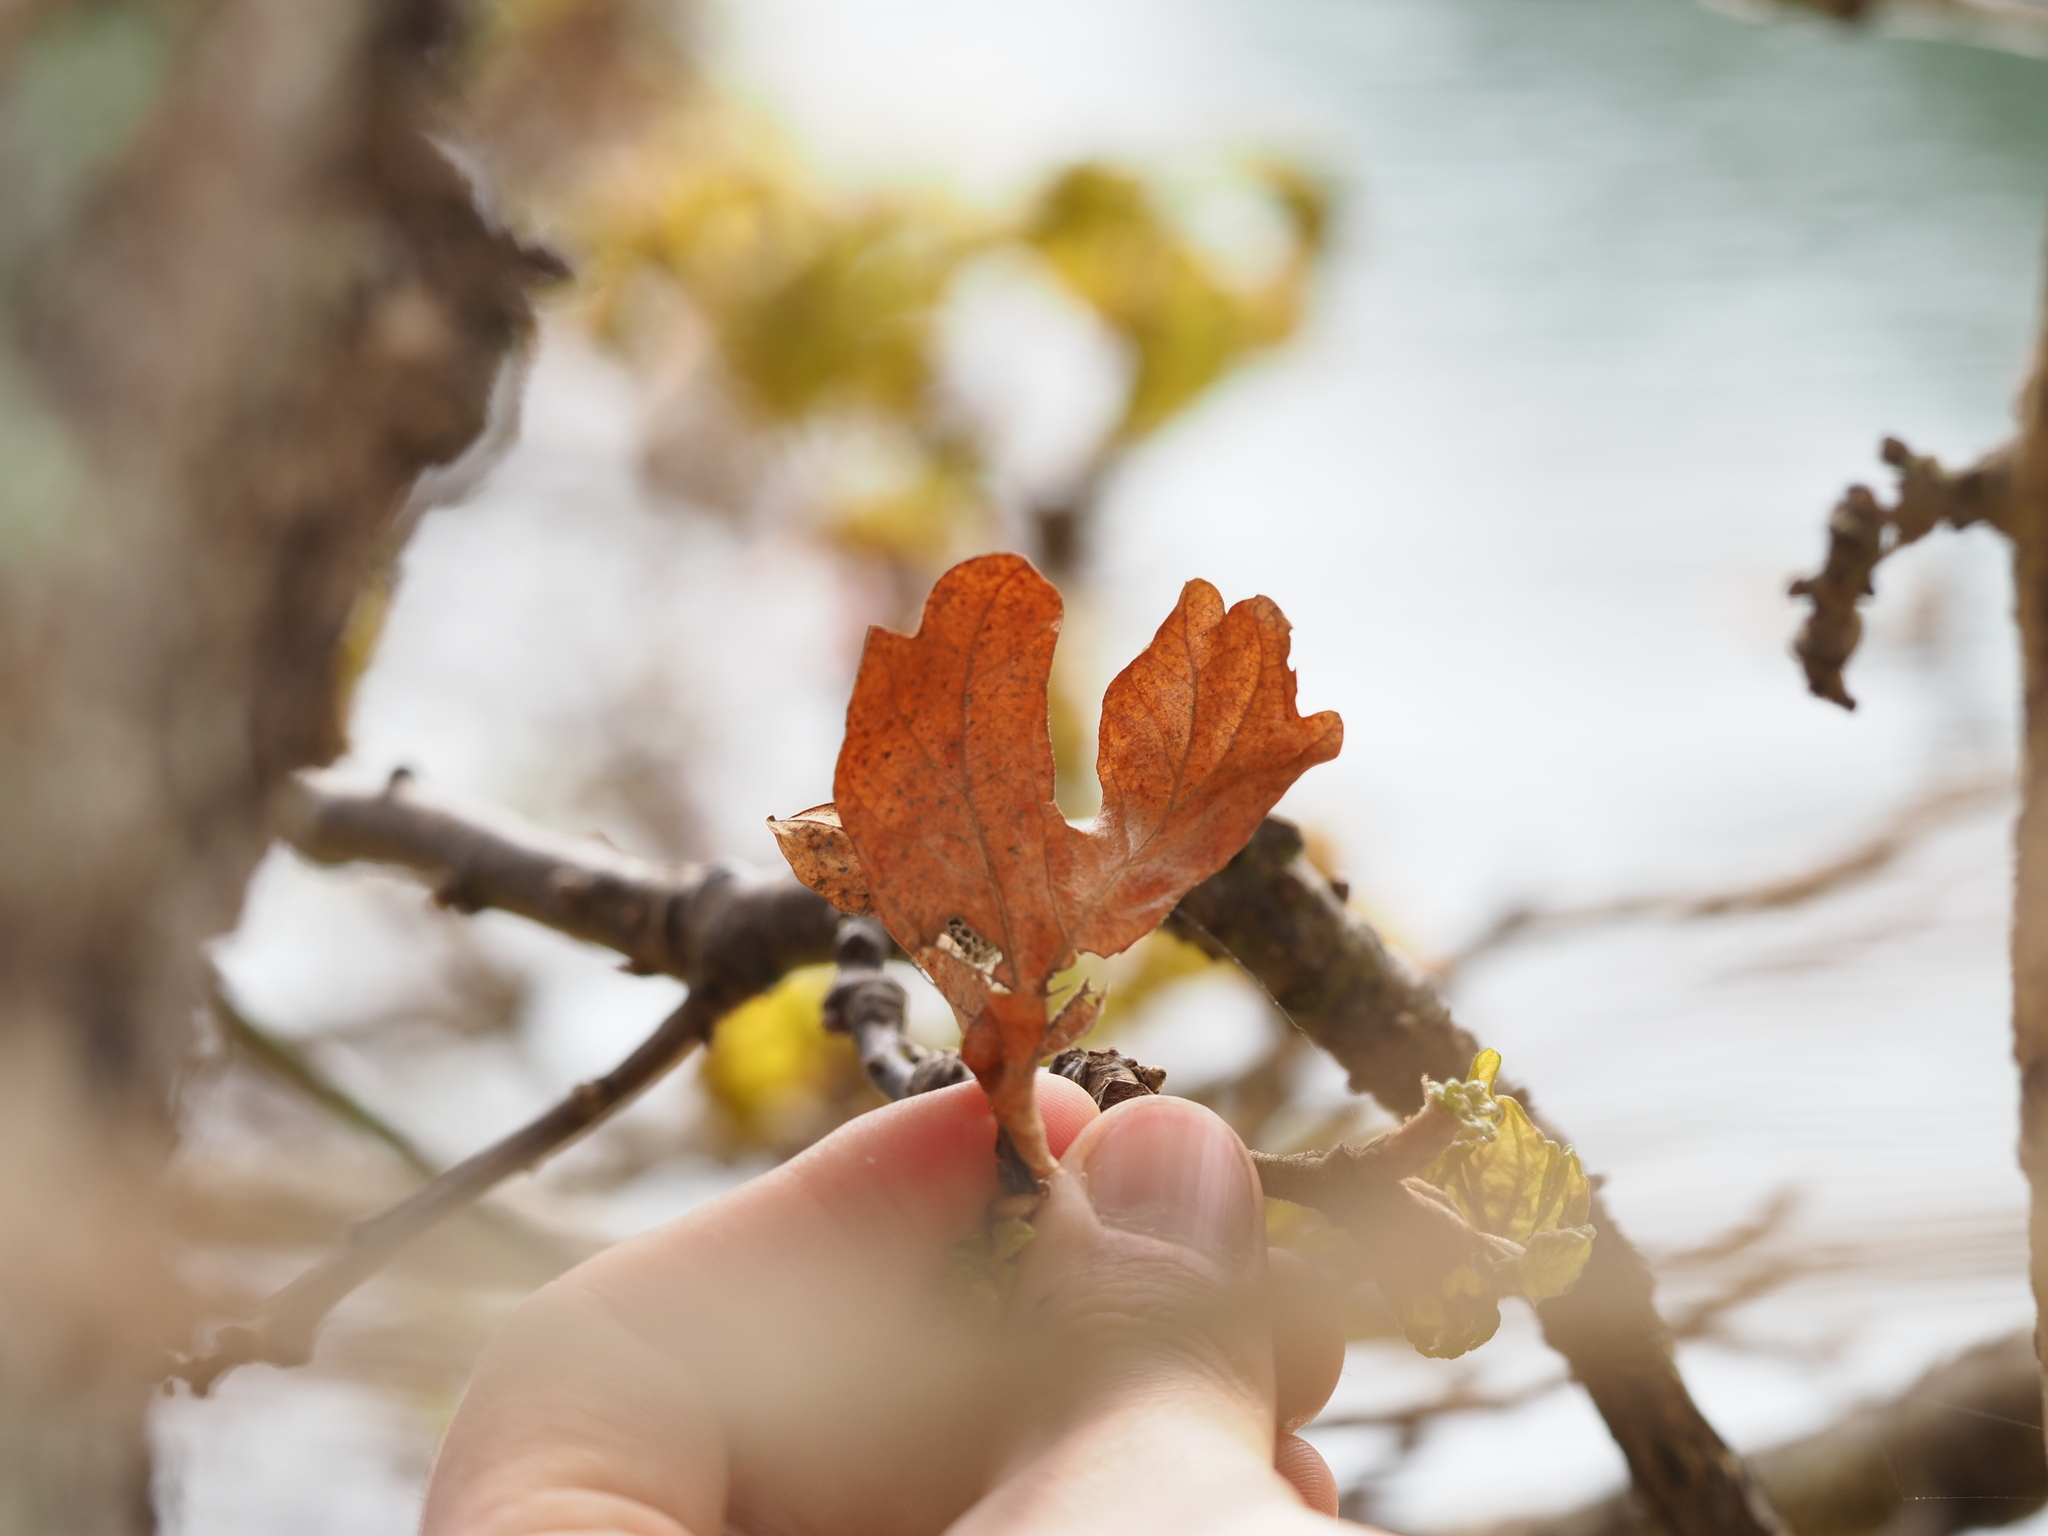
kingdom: Plantae
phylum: Tracheophyta
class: Magnoliopsida
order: Fagales
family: Fagaceae
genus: Quercus
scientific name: Quercus garryana
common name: Garry oak
